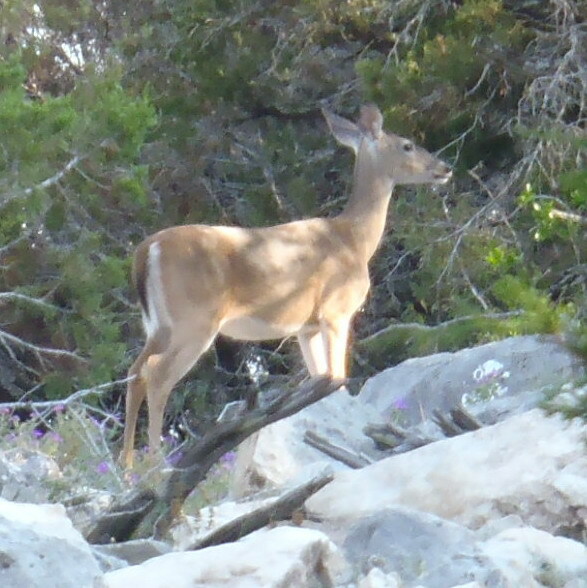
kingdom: Animalia
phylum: Chordata
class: Mammalia
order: Artiodactyla
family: Cervidae
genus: Odocoileus
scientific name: Odocoileus virginianus
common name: White-tailed deer
